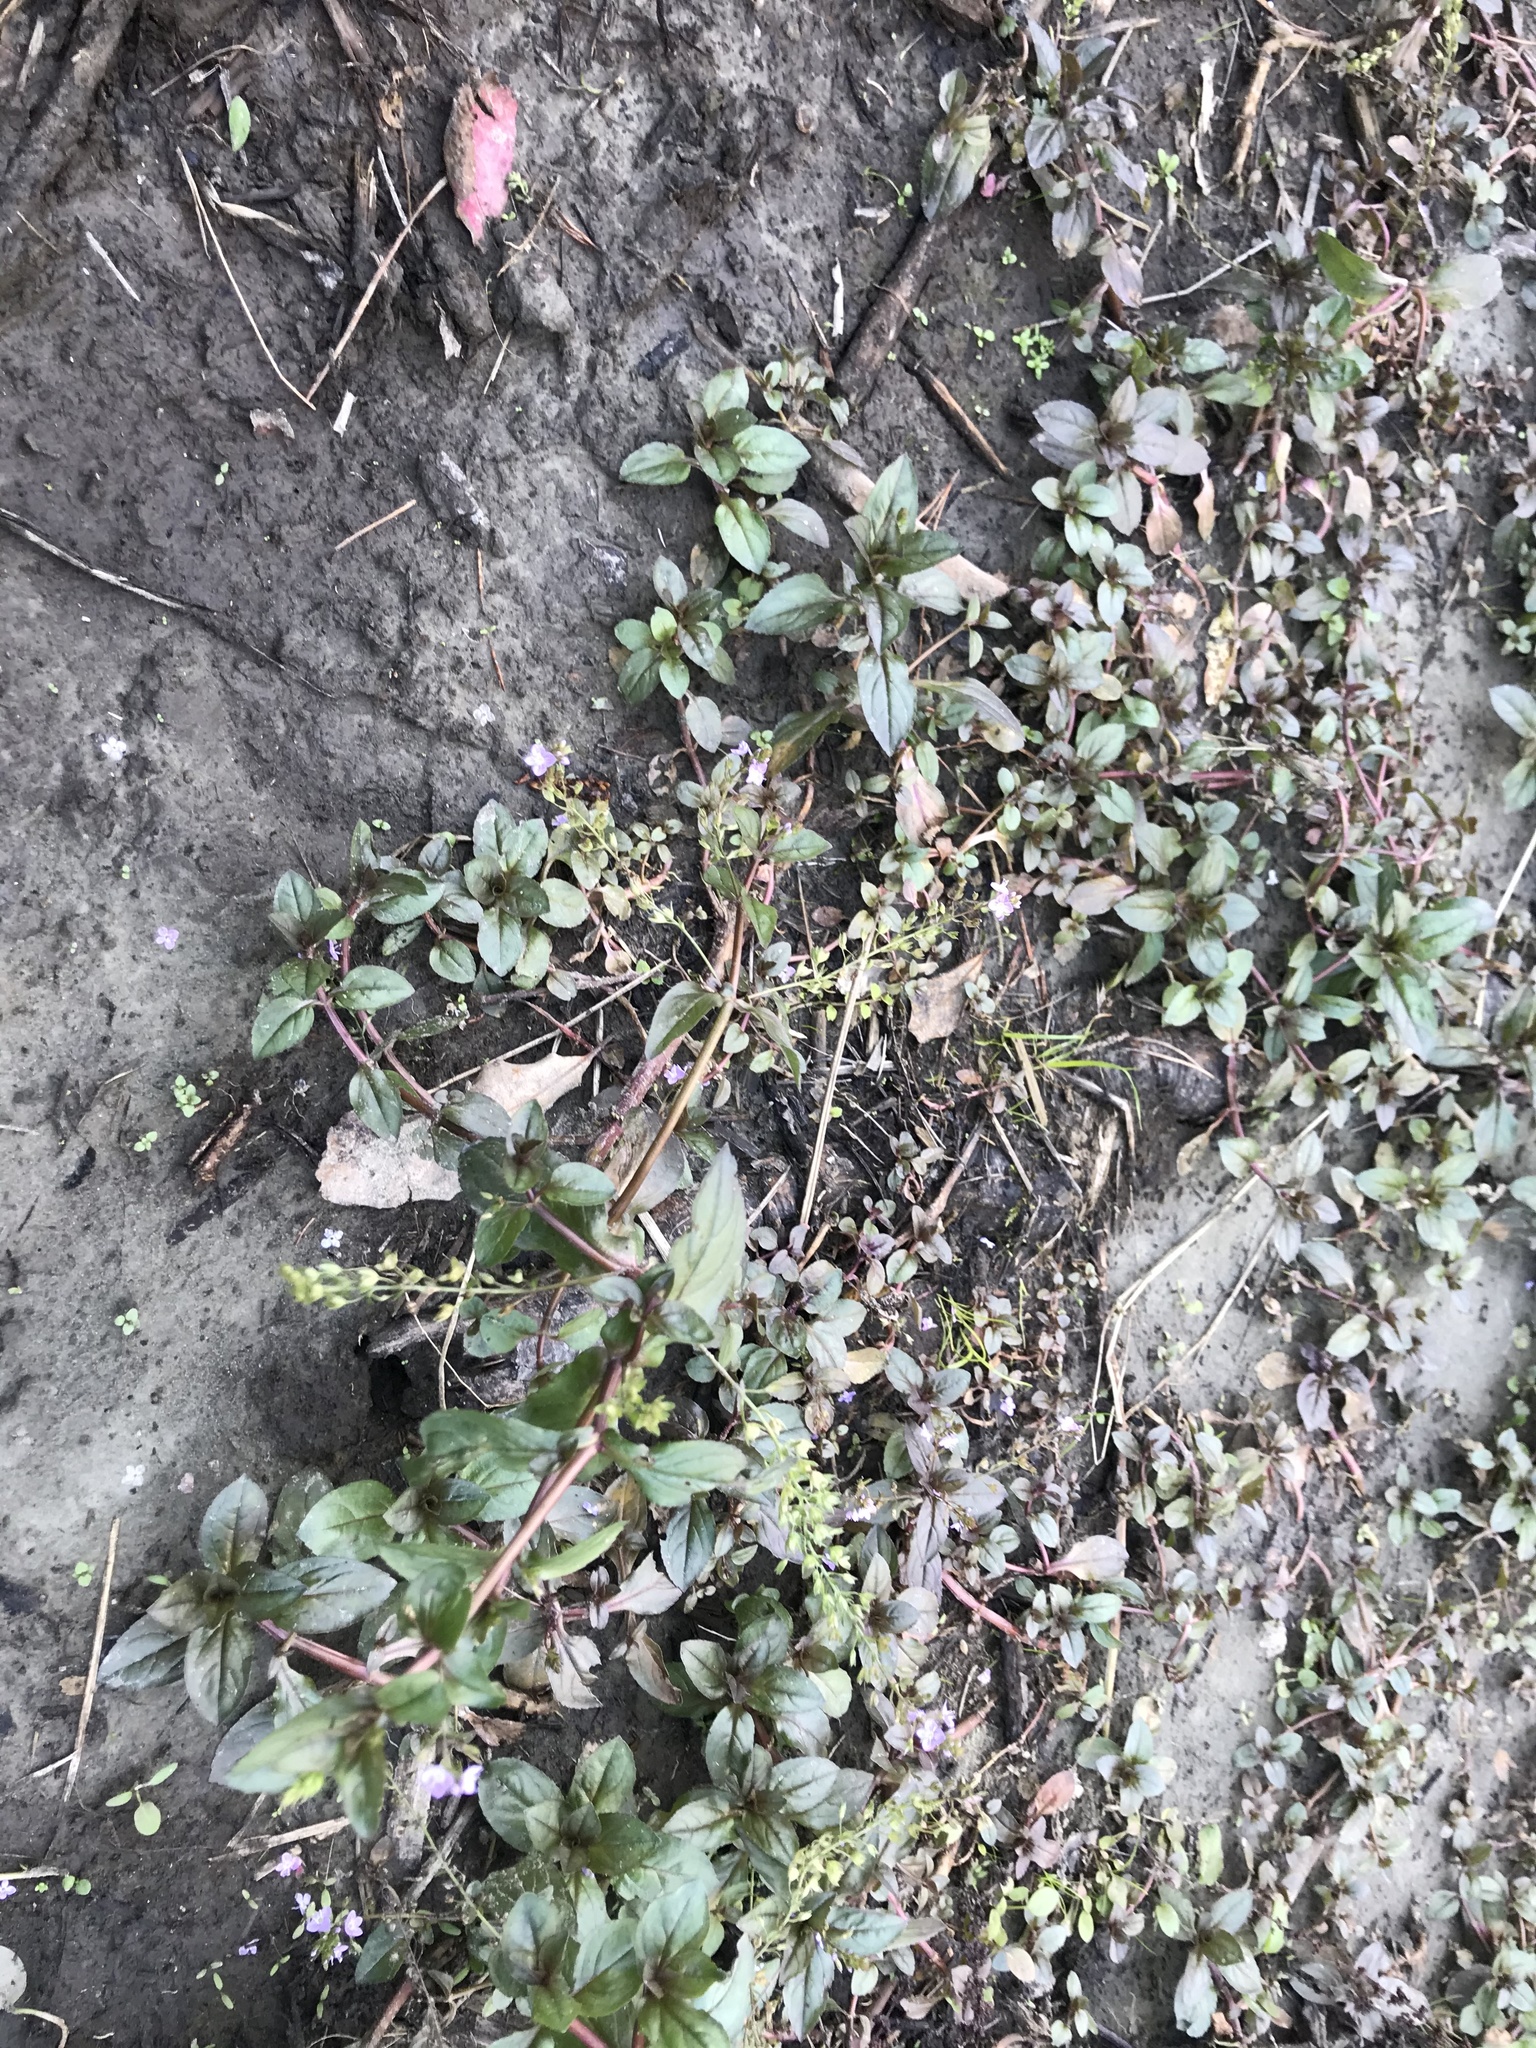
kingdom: Plantae
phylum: Tracheophyta
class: Magnoliopsida
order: Lamiales
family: Plantaginaceae
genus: Veronica
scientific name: Veronica anagallis-aquatica
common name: Water speedwell
